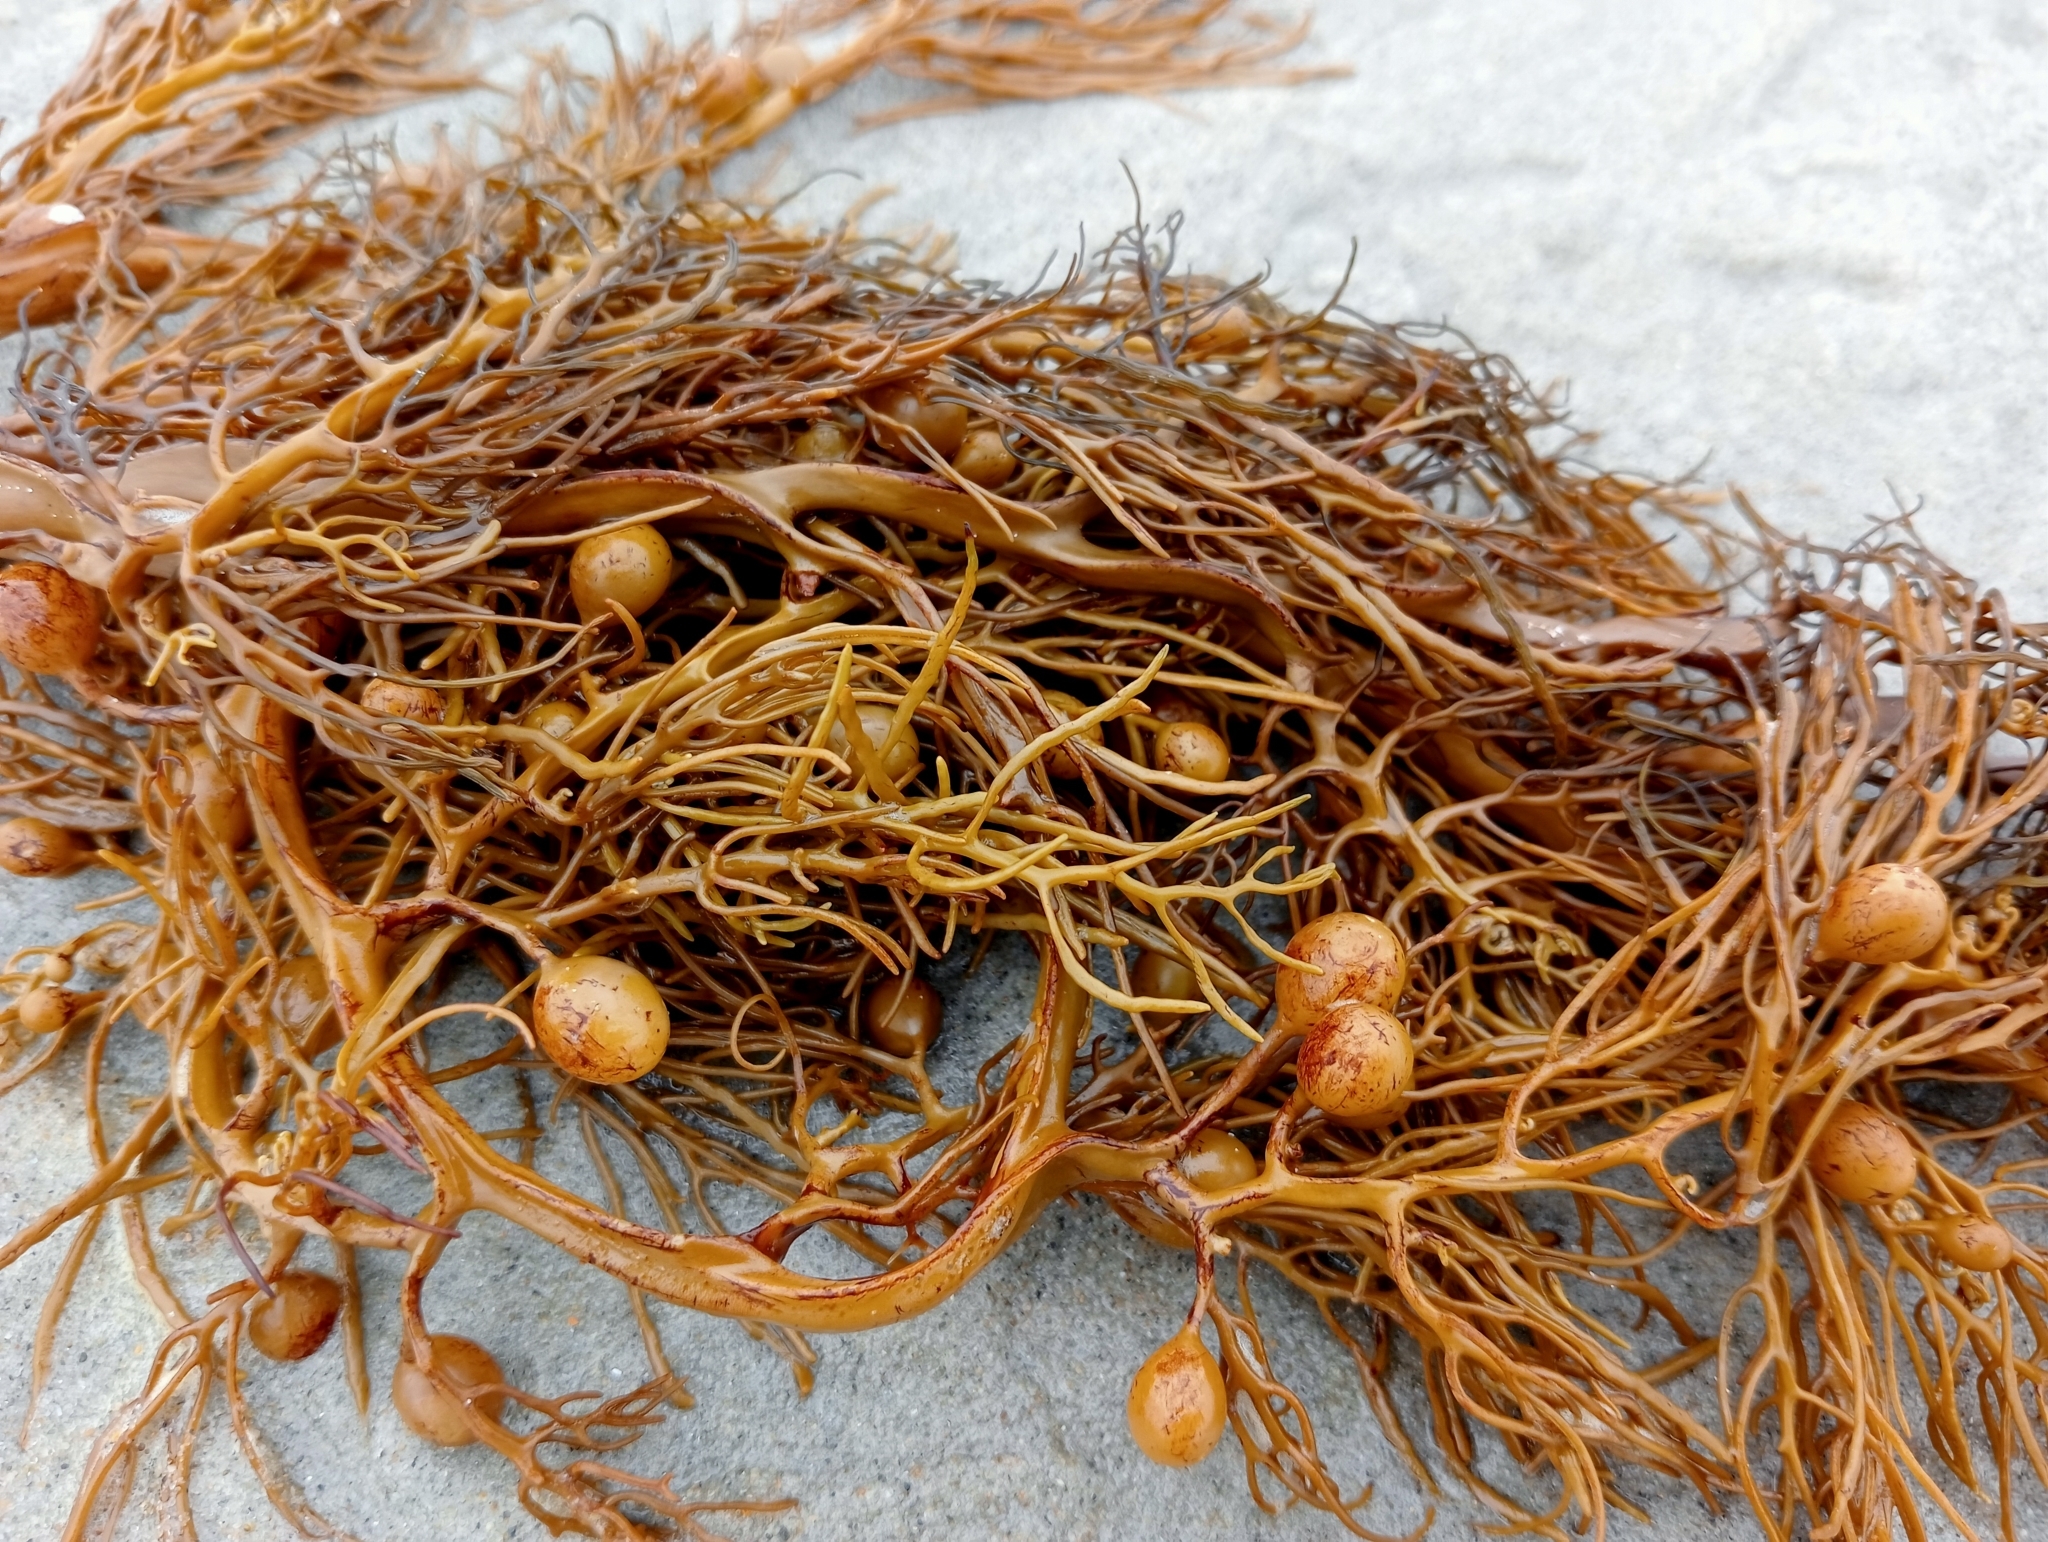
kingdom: Chromista
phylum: Ochrophyta
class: Phaeophyceae
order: Fucales
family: Sargassaceae
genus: Cystophora
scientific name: Cystophora retroflexa
